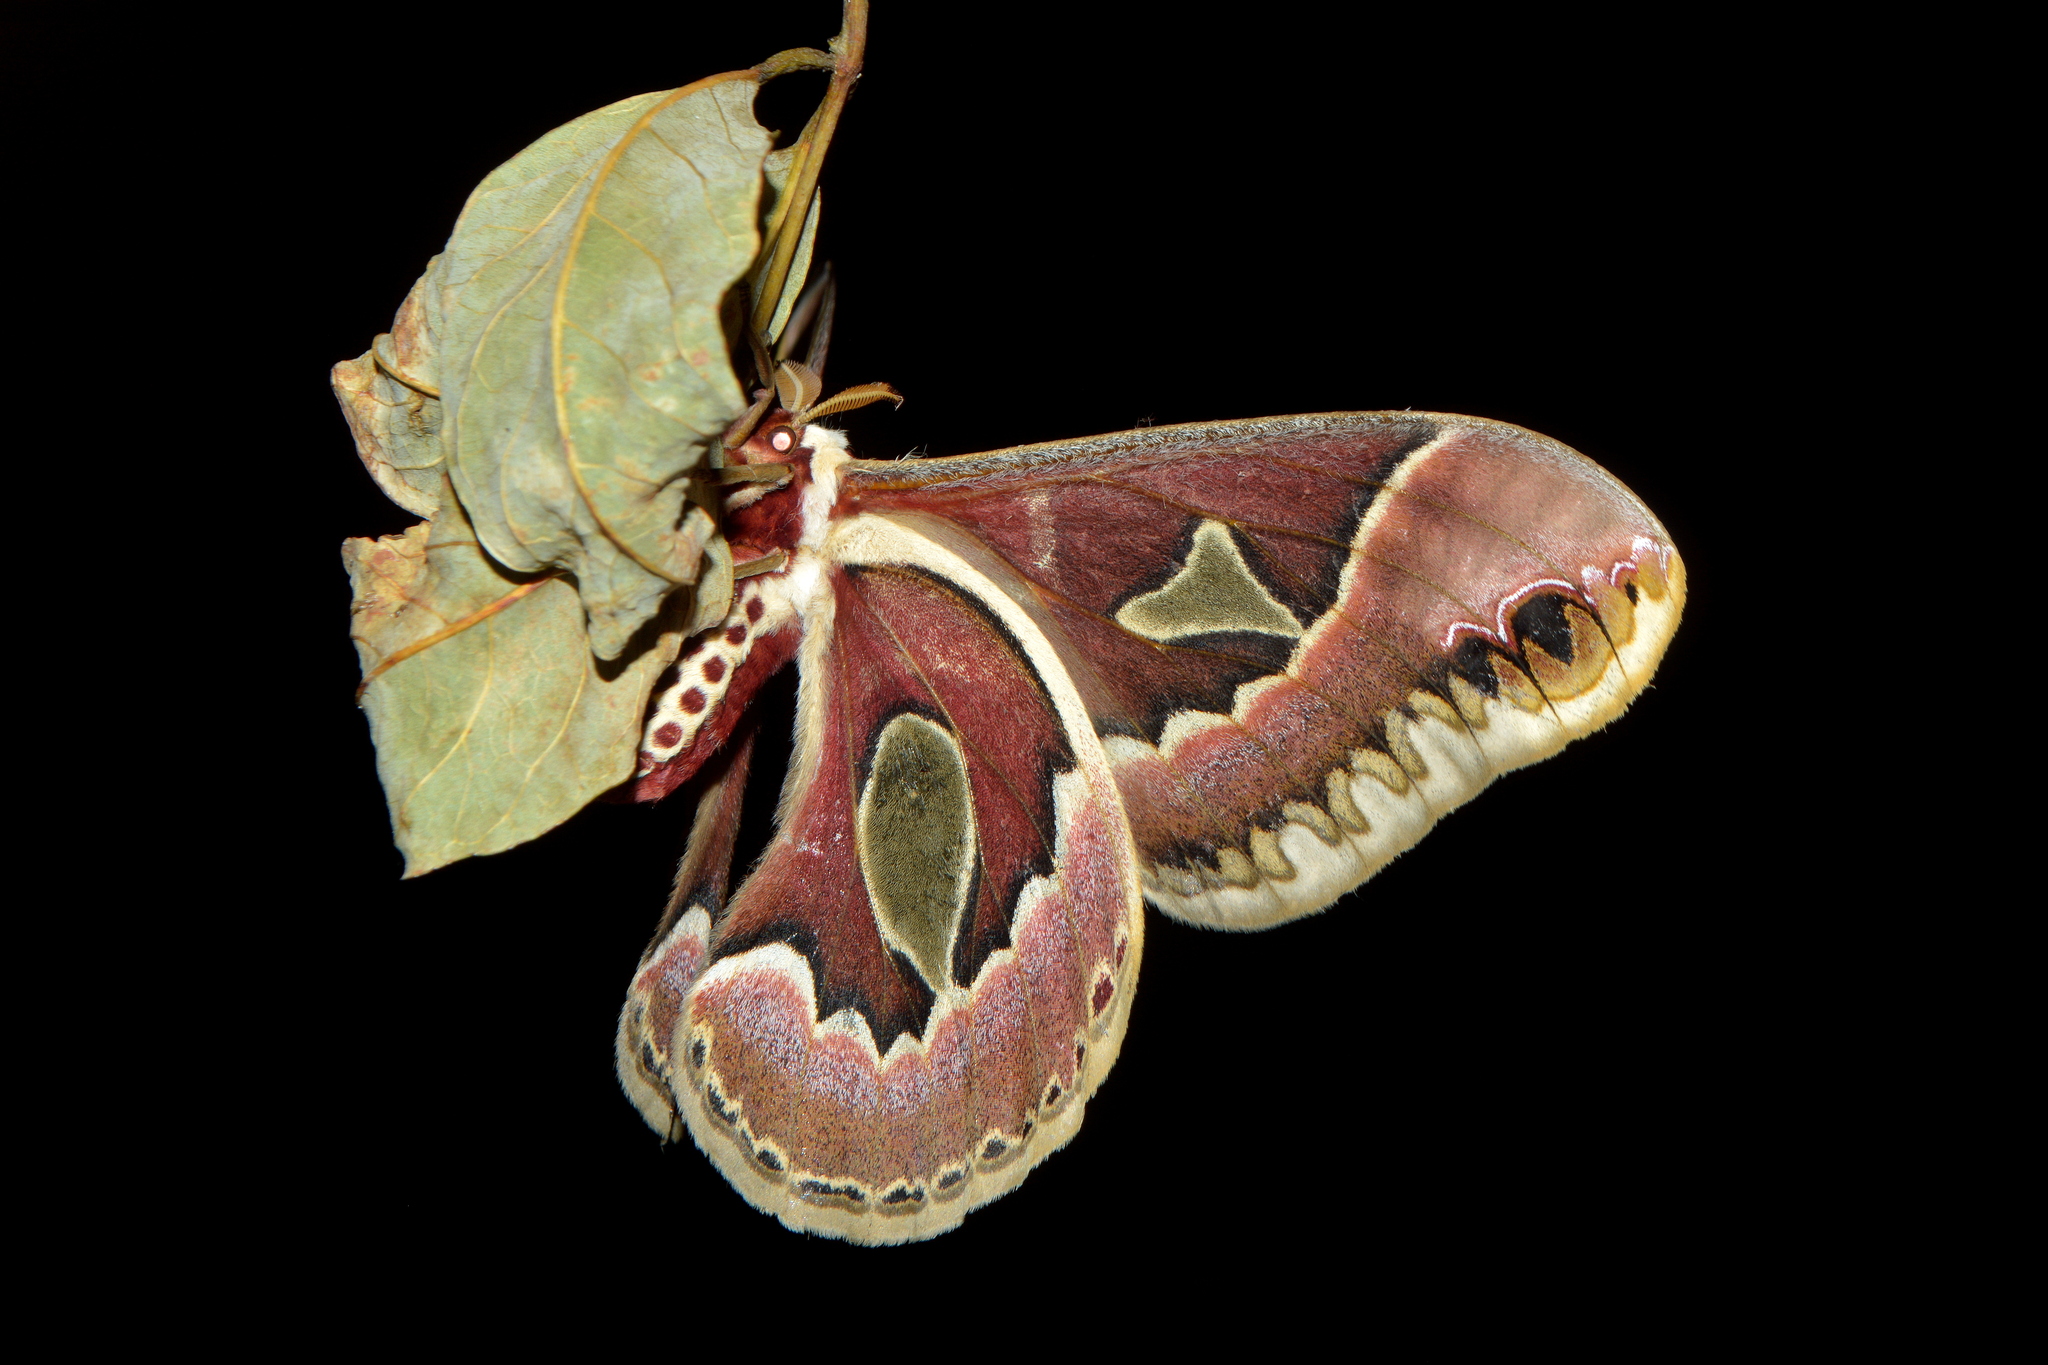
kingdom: Animalia
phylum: Arthropoda
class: Insecta
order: Lepidoptera
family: Saturniidae
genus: Rothschildia
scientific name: Rothschildia jacobaeae
